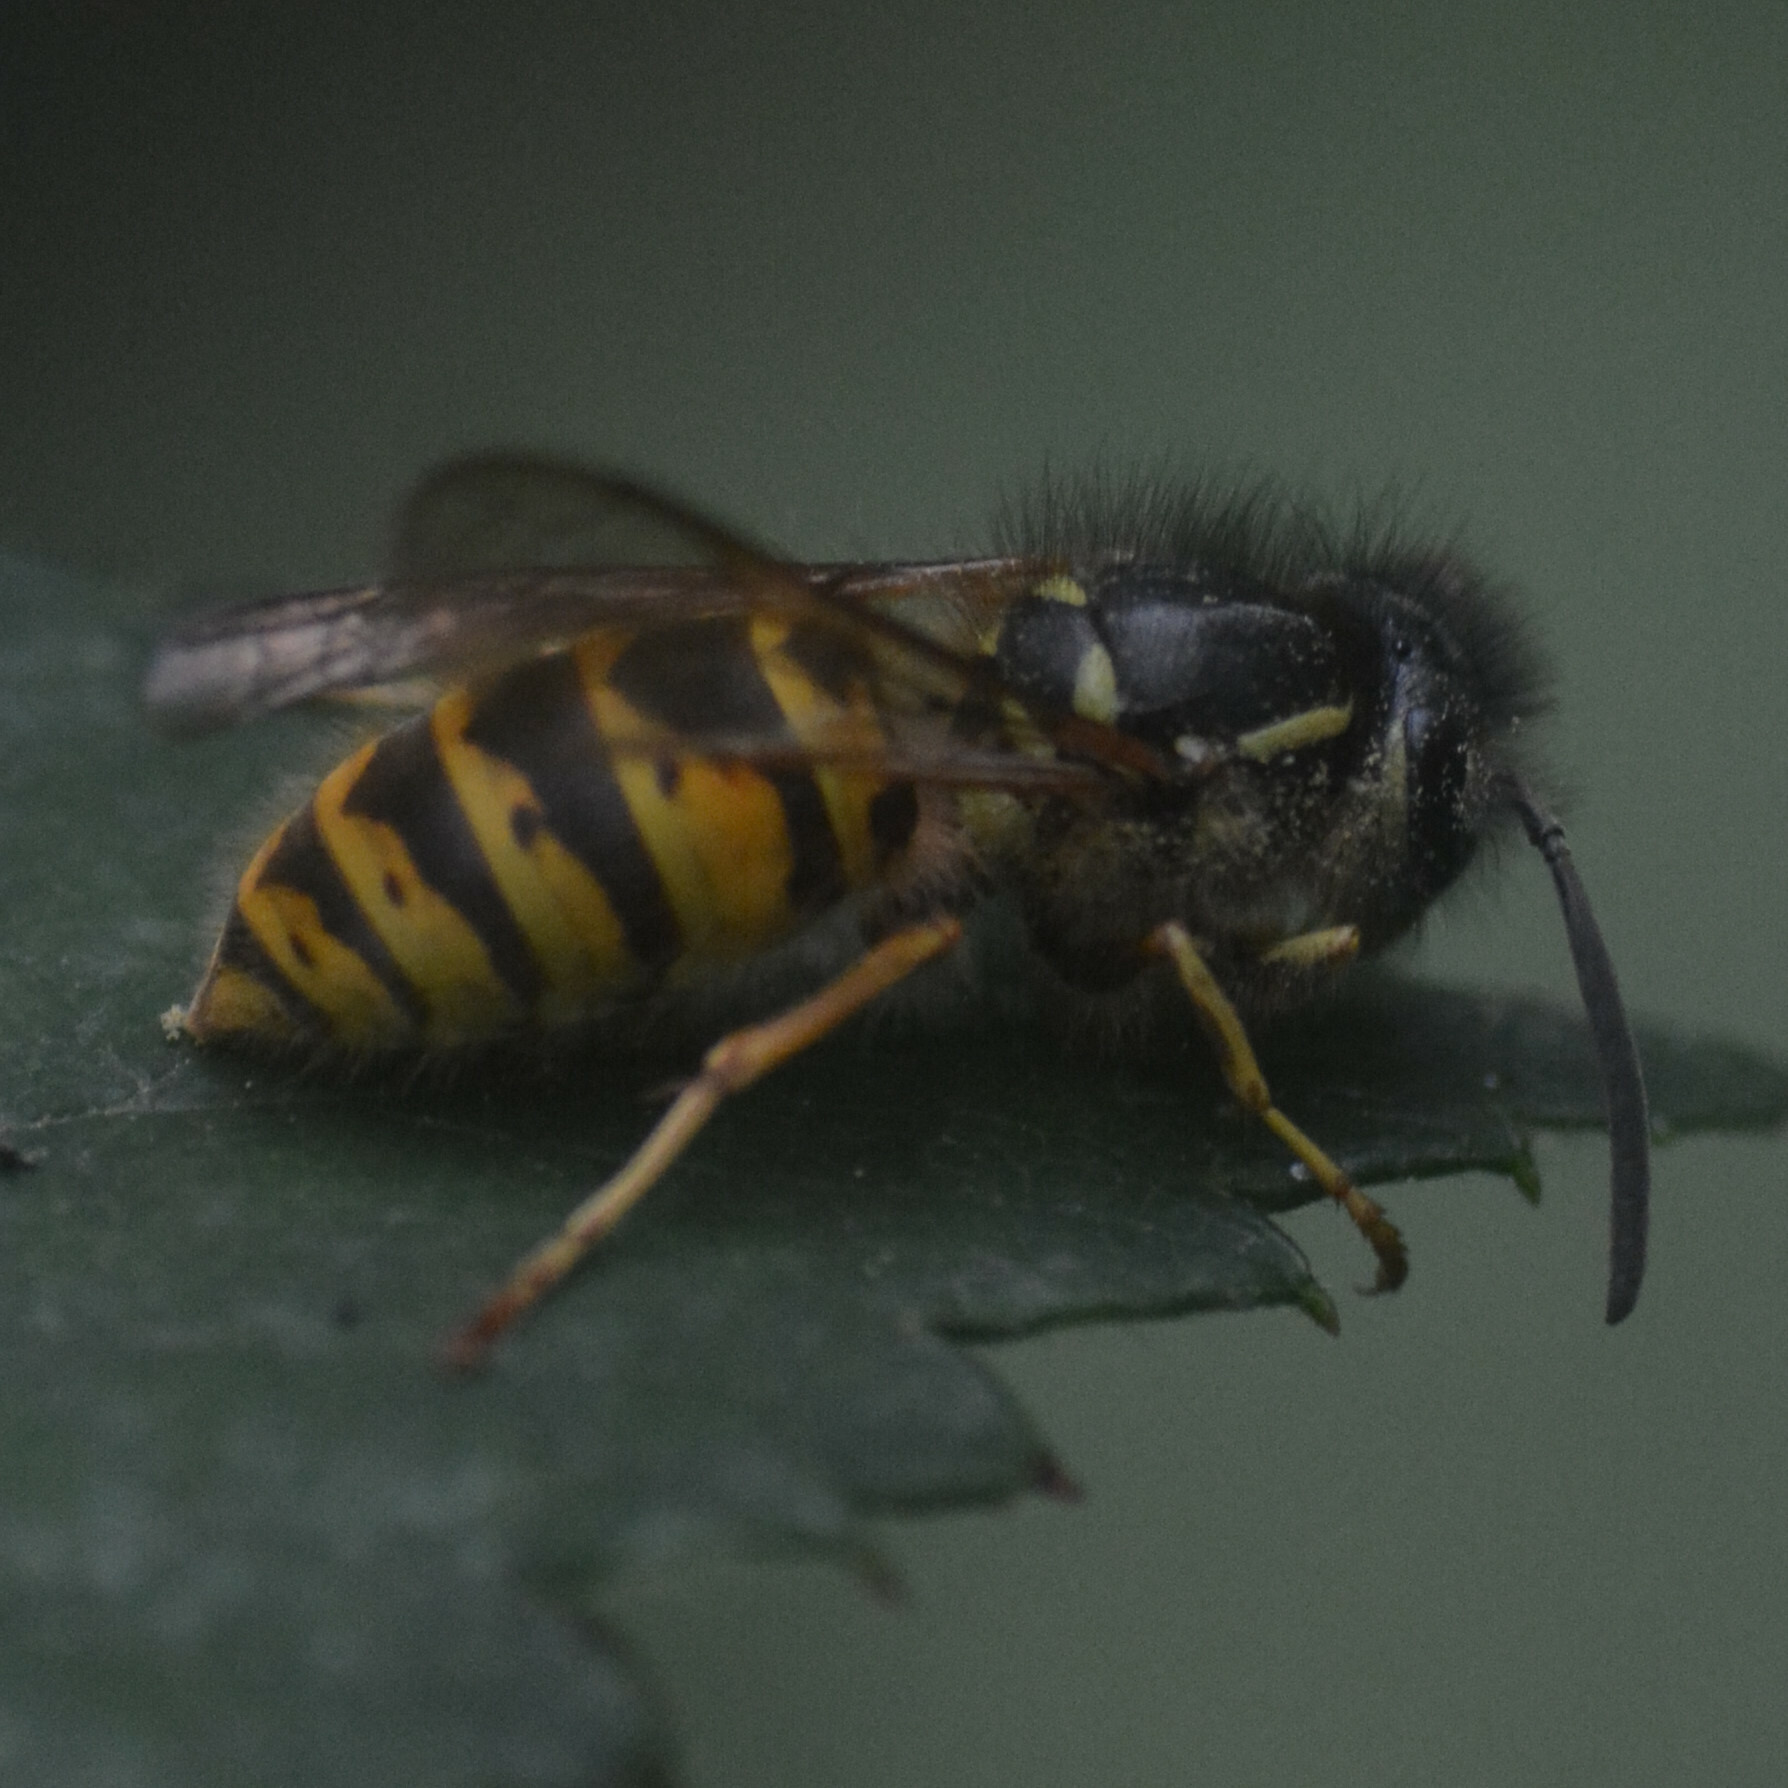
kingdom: Animalia
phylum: Arthropoda
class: Insecta
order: Hymenoptera
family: Vespidae
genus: Vespula
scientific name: Vespula vulgaris
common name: Common wasp
